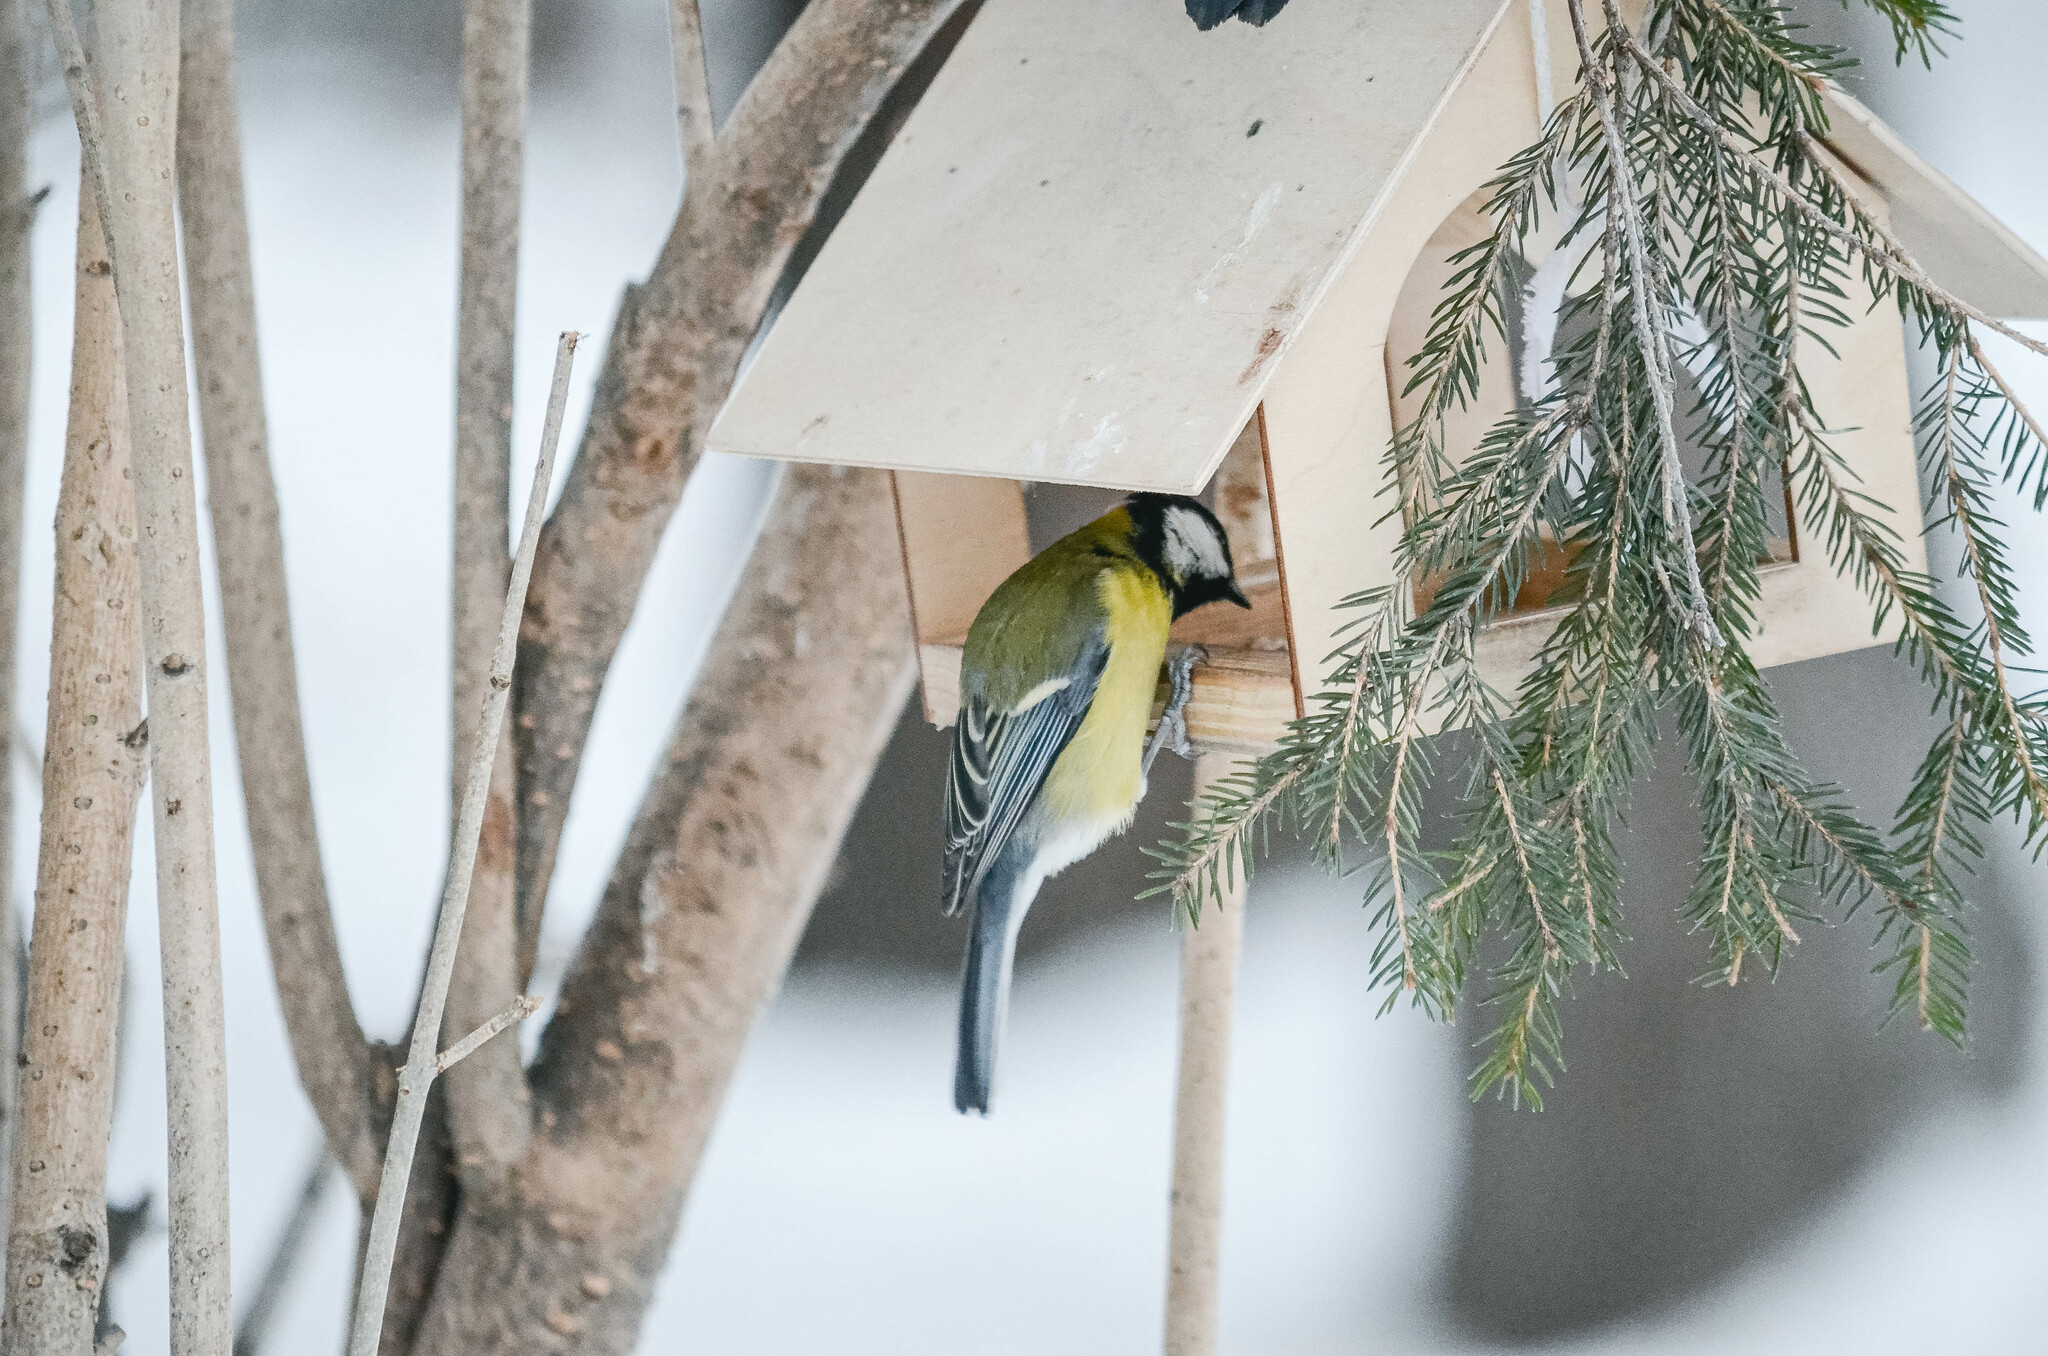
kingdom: Animalia
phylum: Chordata
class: Aves
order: Passeriformes
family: Paridae
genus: Parus
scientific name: Parus major
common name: Great tit
